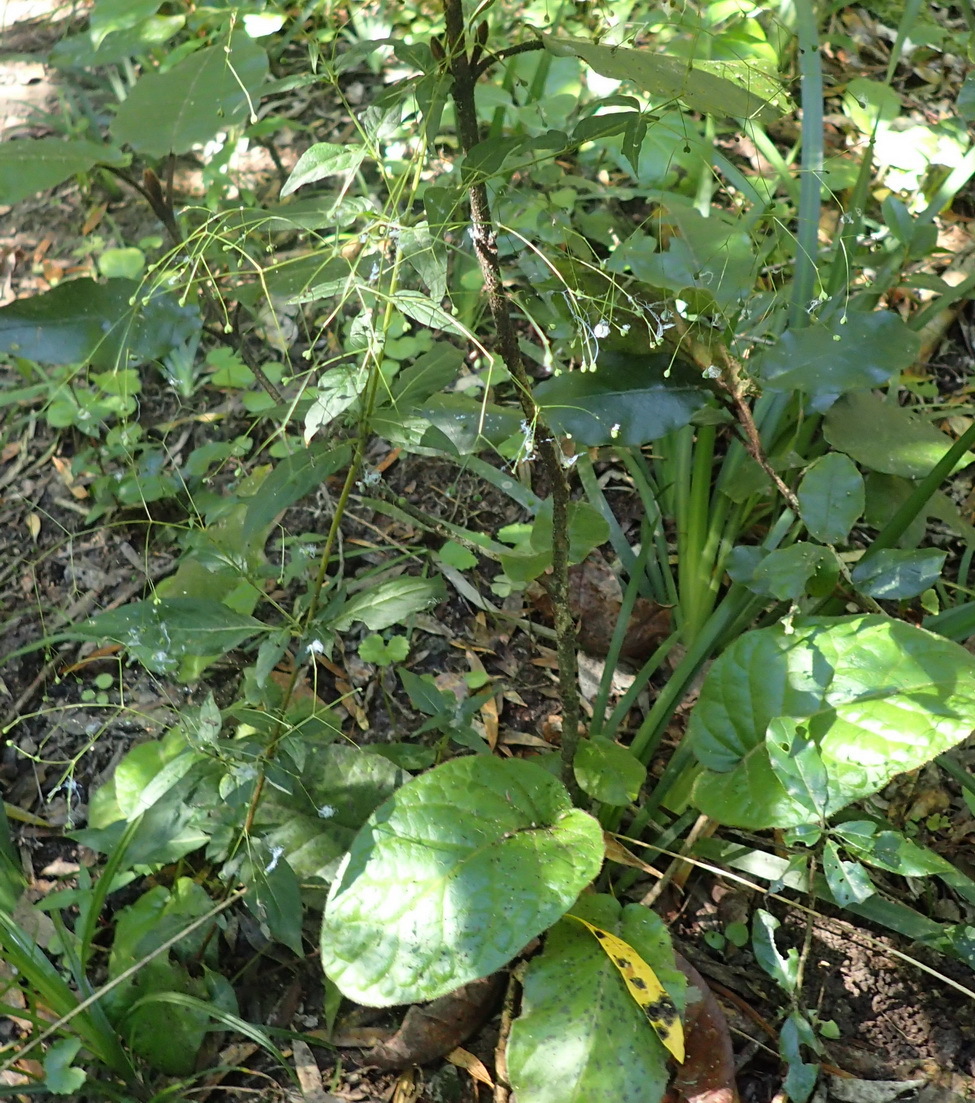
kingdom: Plantae
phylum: Tracheophyta
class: Magnoliopsida
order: Gentianales
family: Rubiaceae
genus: Galopina
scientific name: Galopina circaeoides
